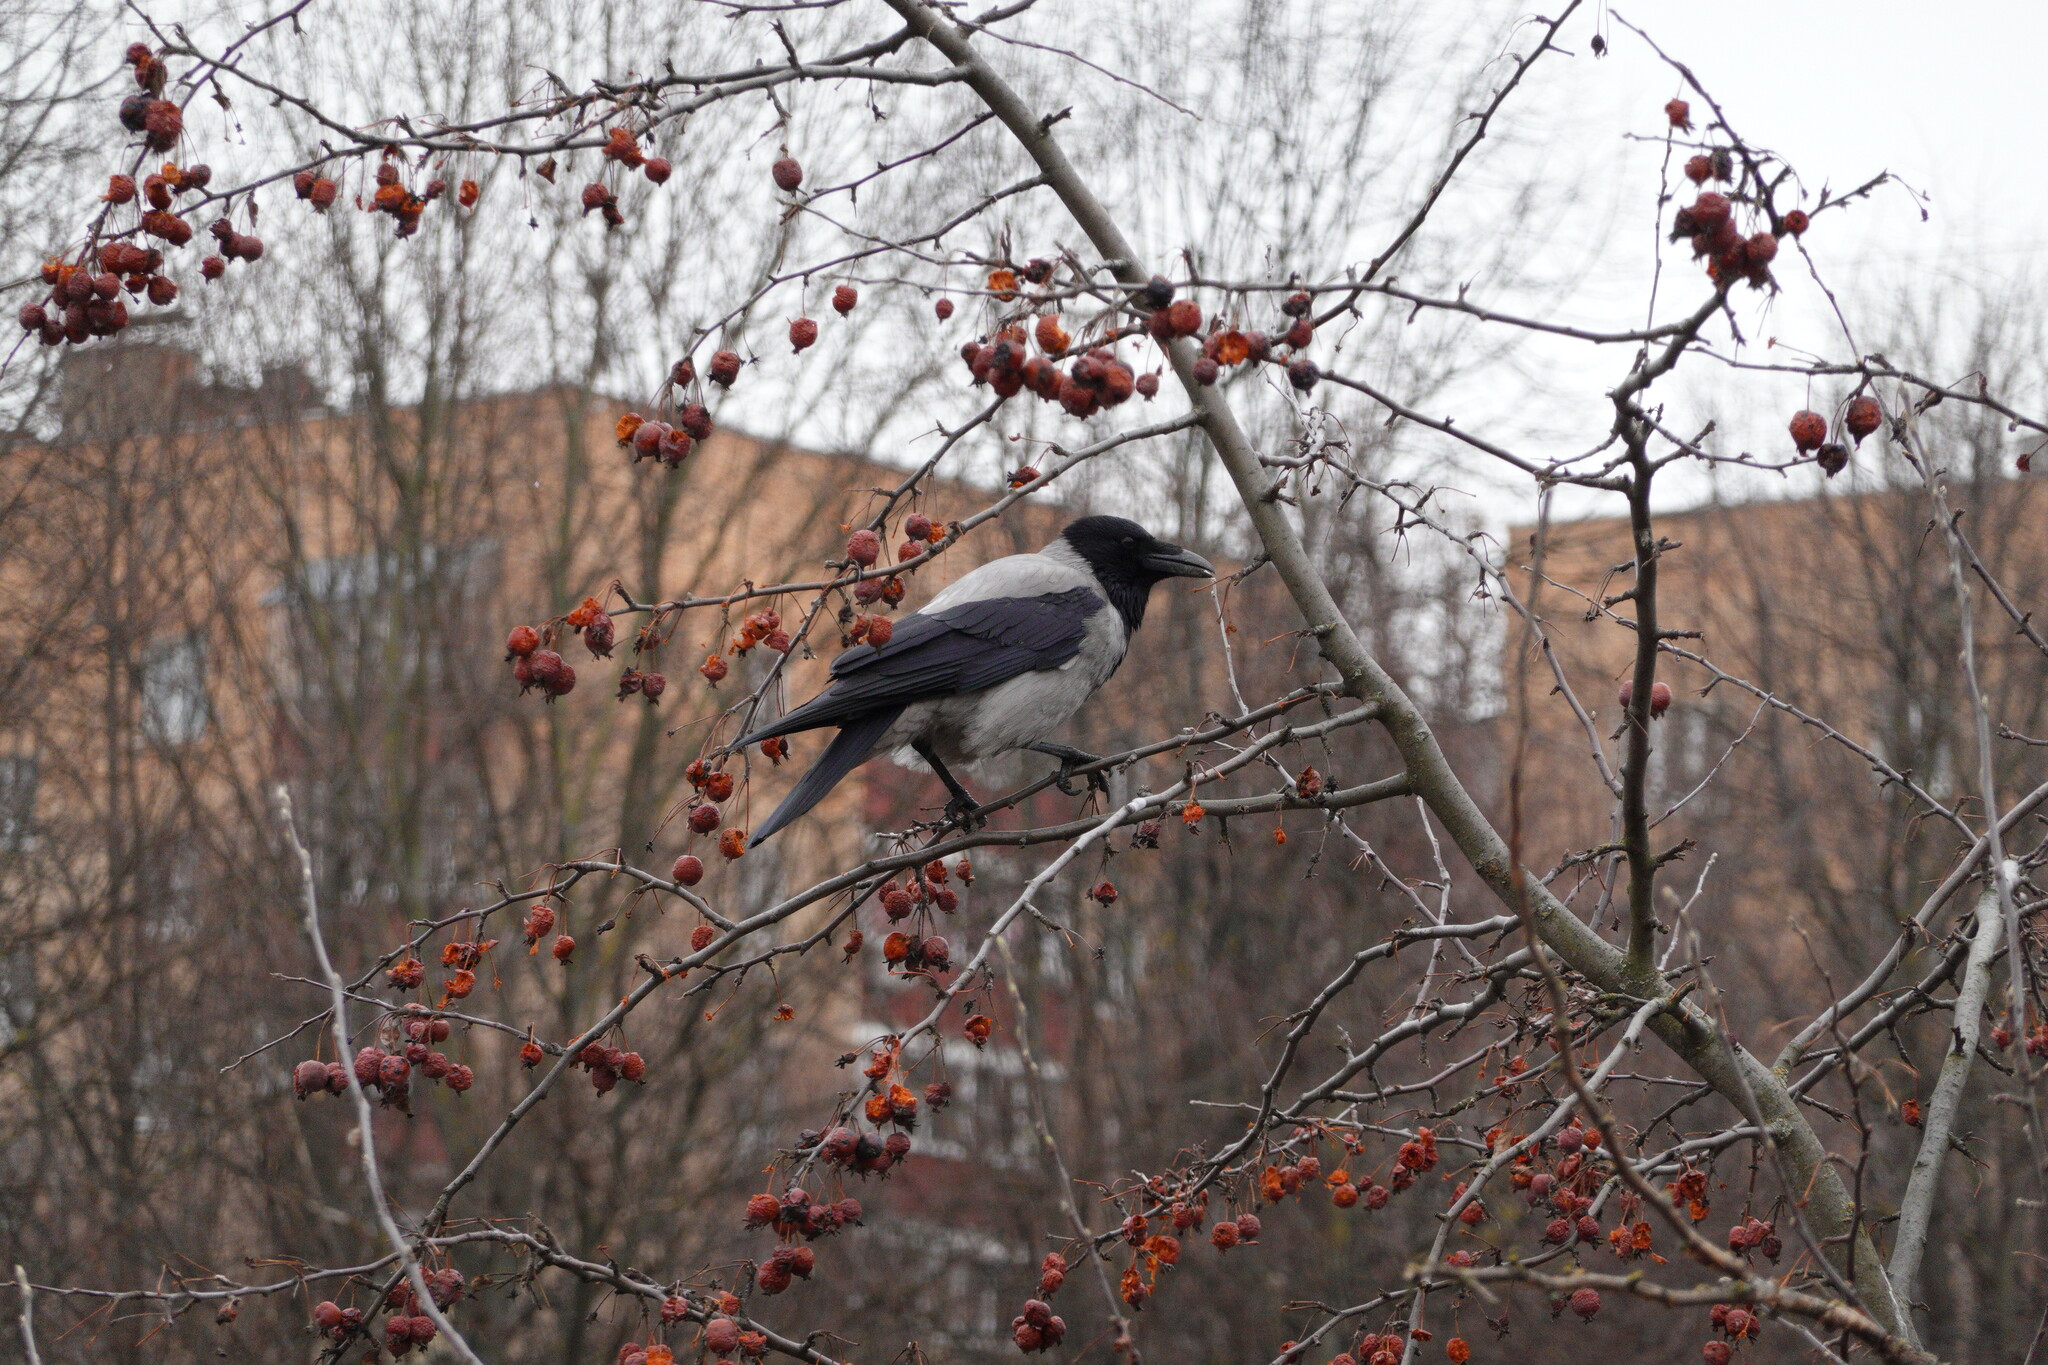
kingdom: Animalia
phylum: Chordata
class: Aves
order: Passeriformes
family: Corvidae
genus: Corvus
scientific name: Corvus cornix
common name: Hooded crow
